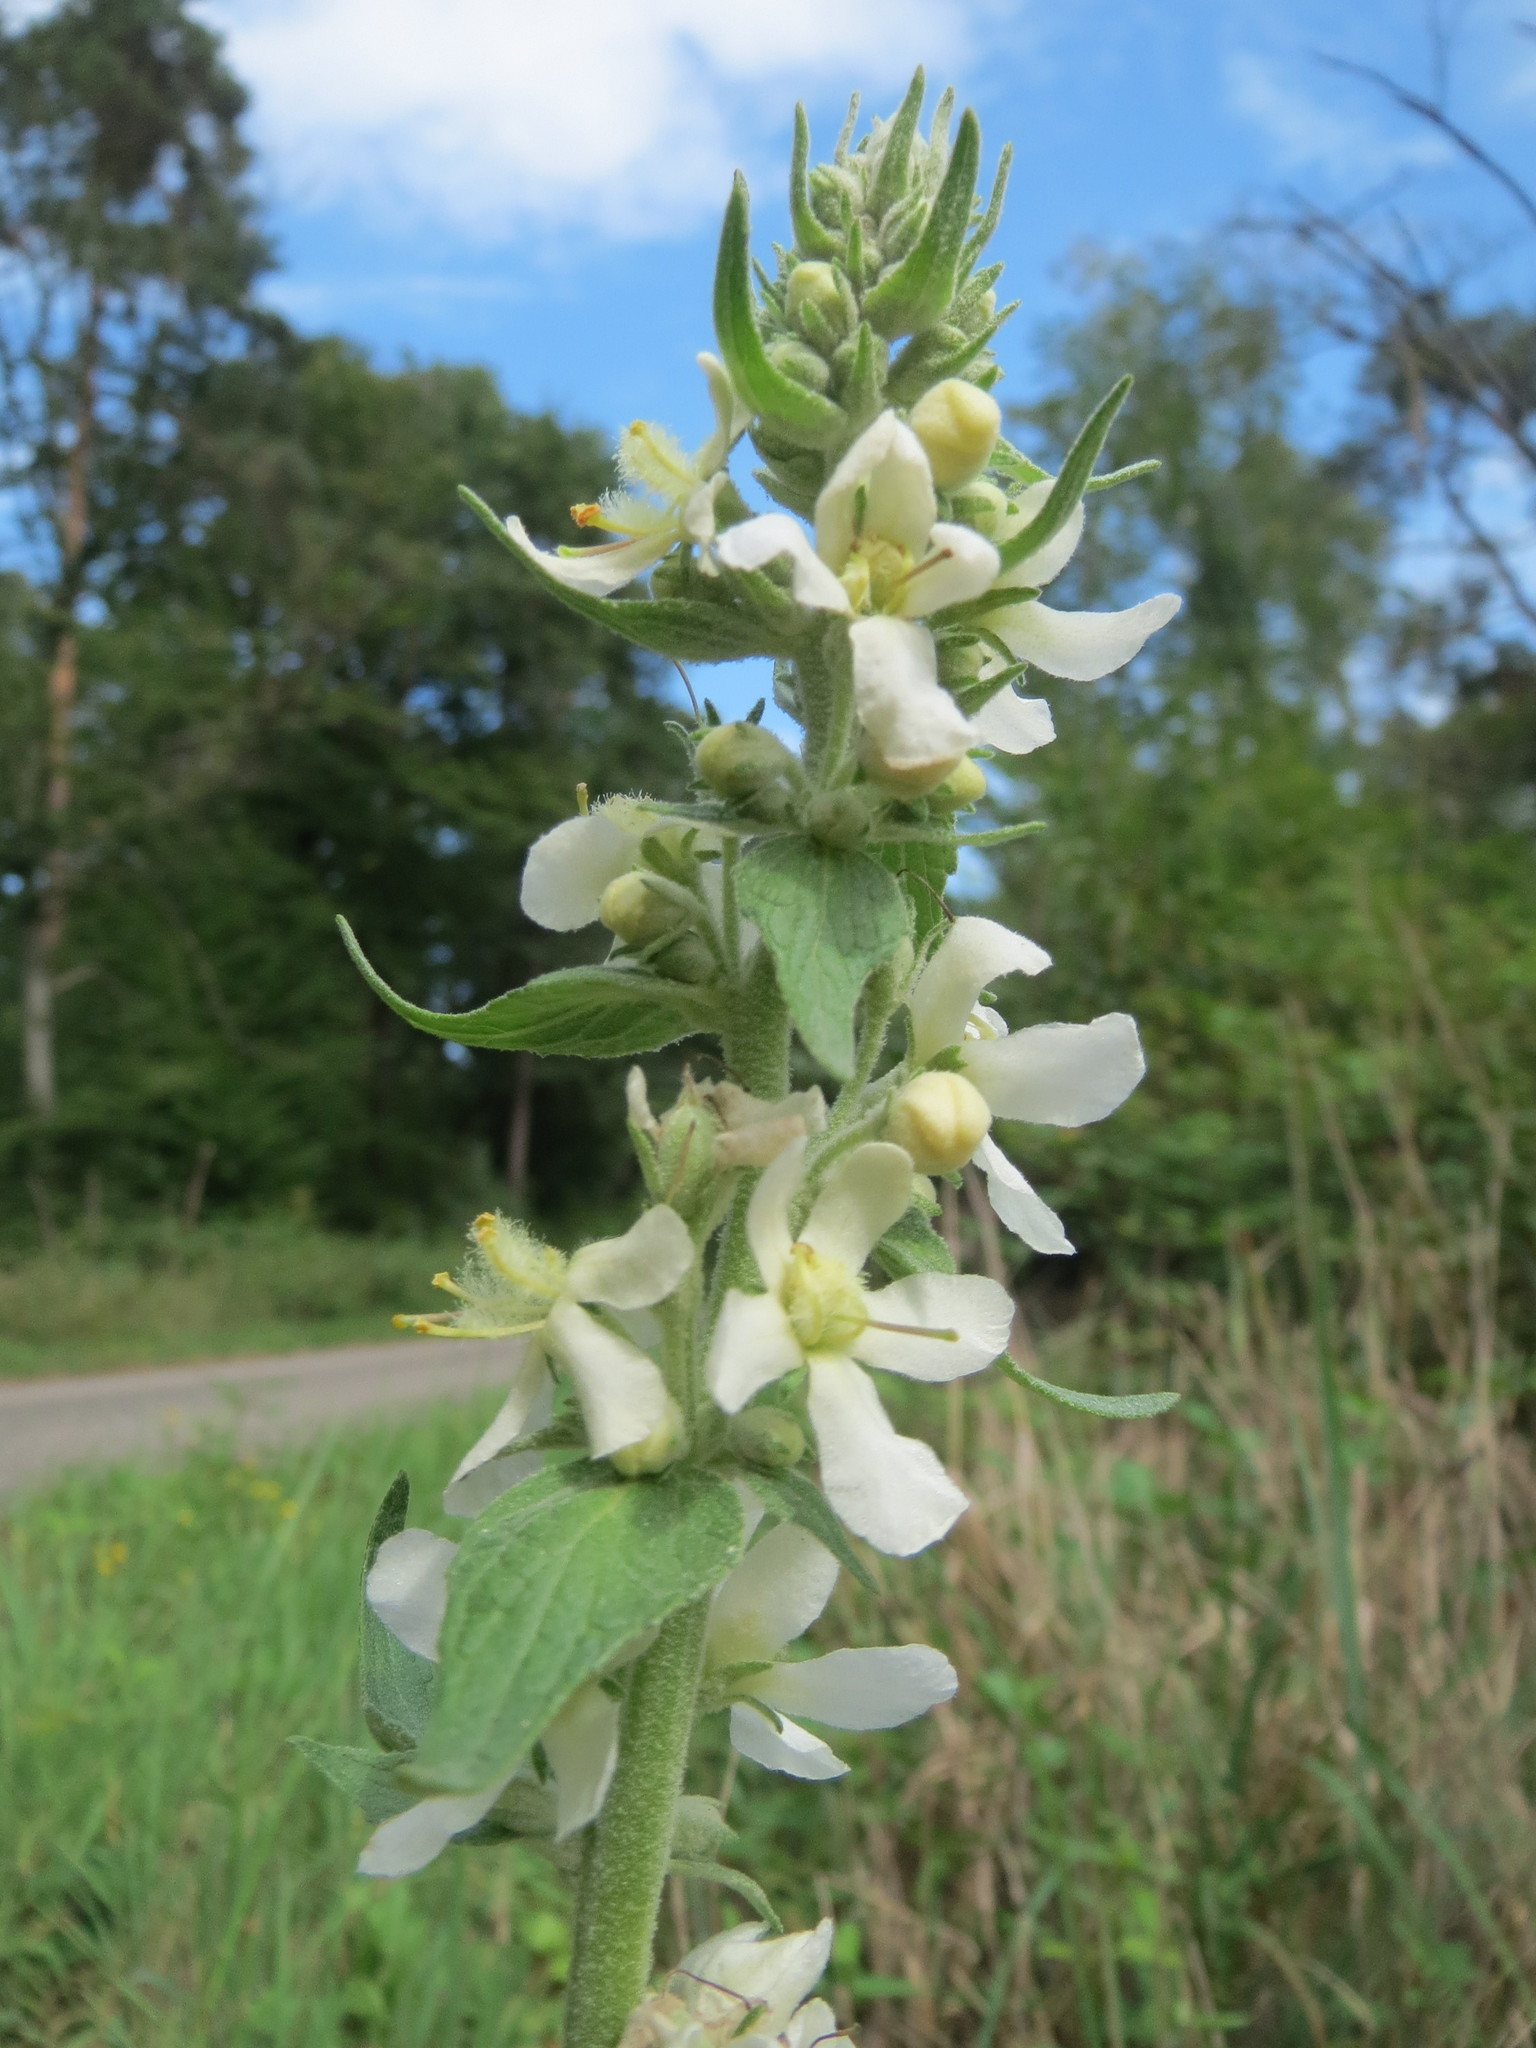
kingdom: Plantae
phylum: Tracheophyta
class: Magnoliopsida
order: Lamiales
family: Scrophulariaceae
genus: Verbascum
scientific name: Verbascum lychnitis
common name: White mullein
